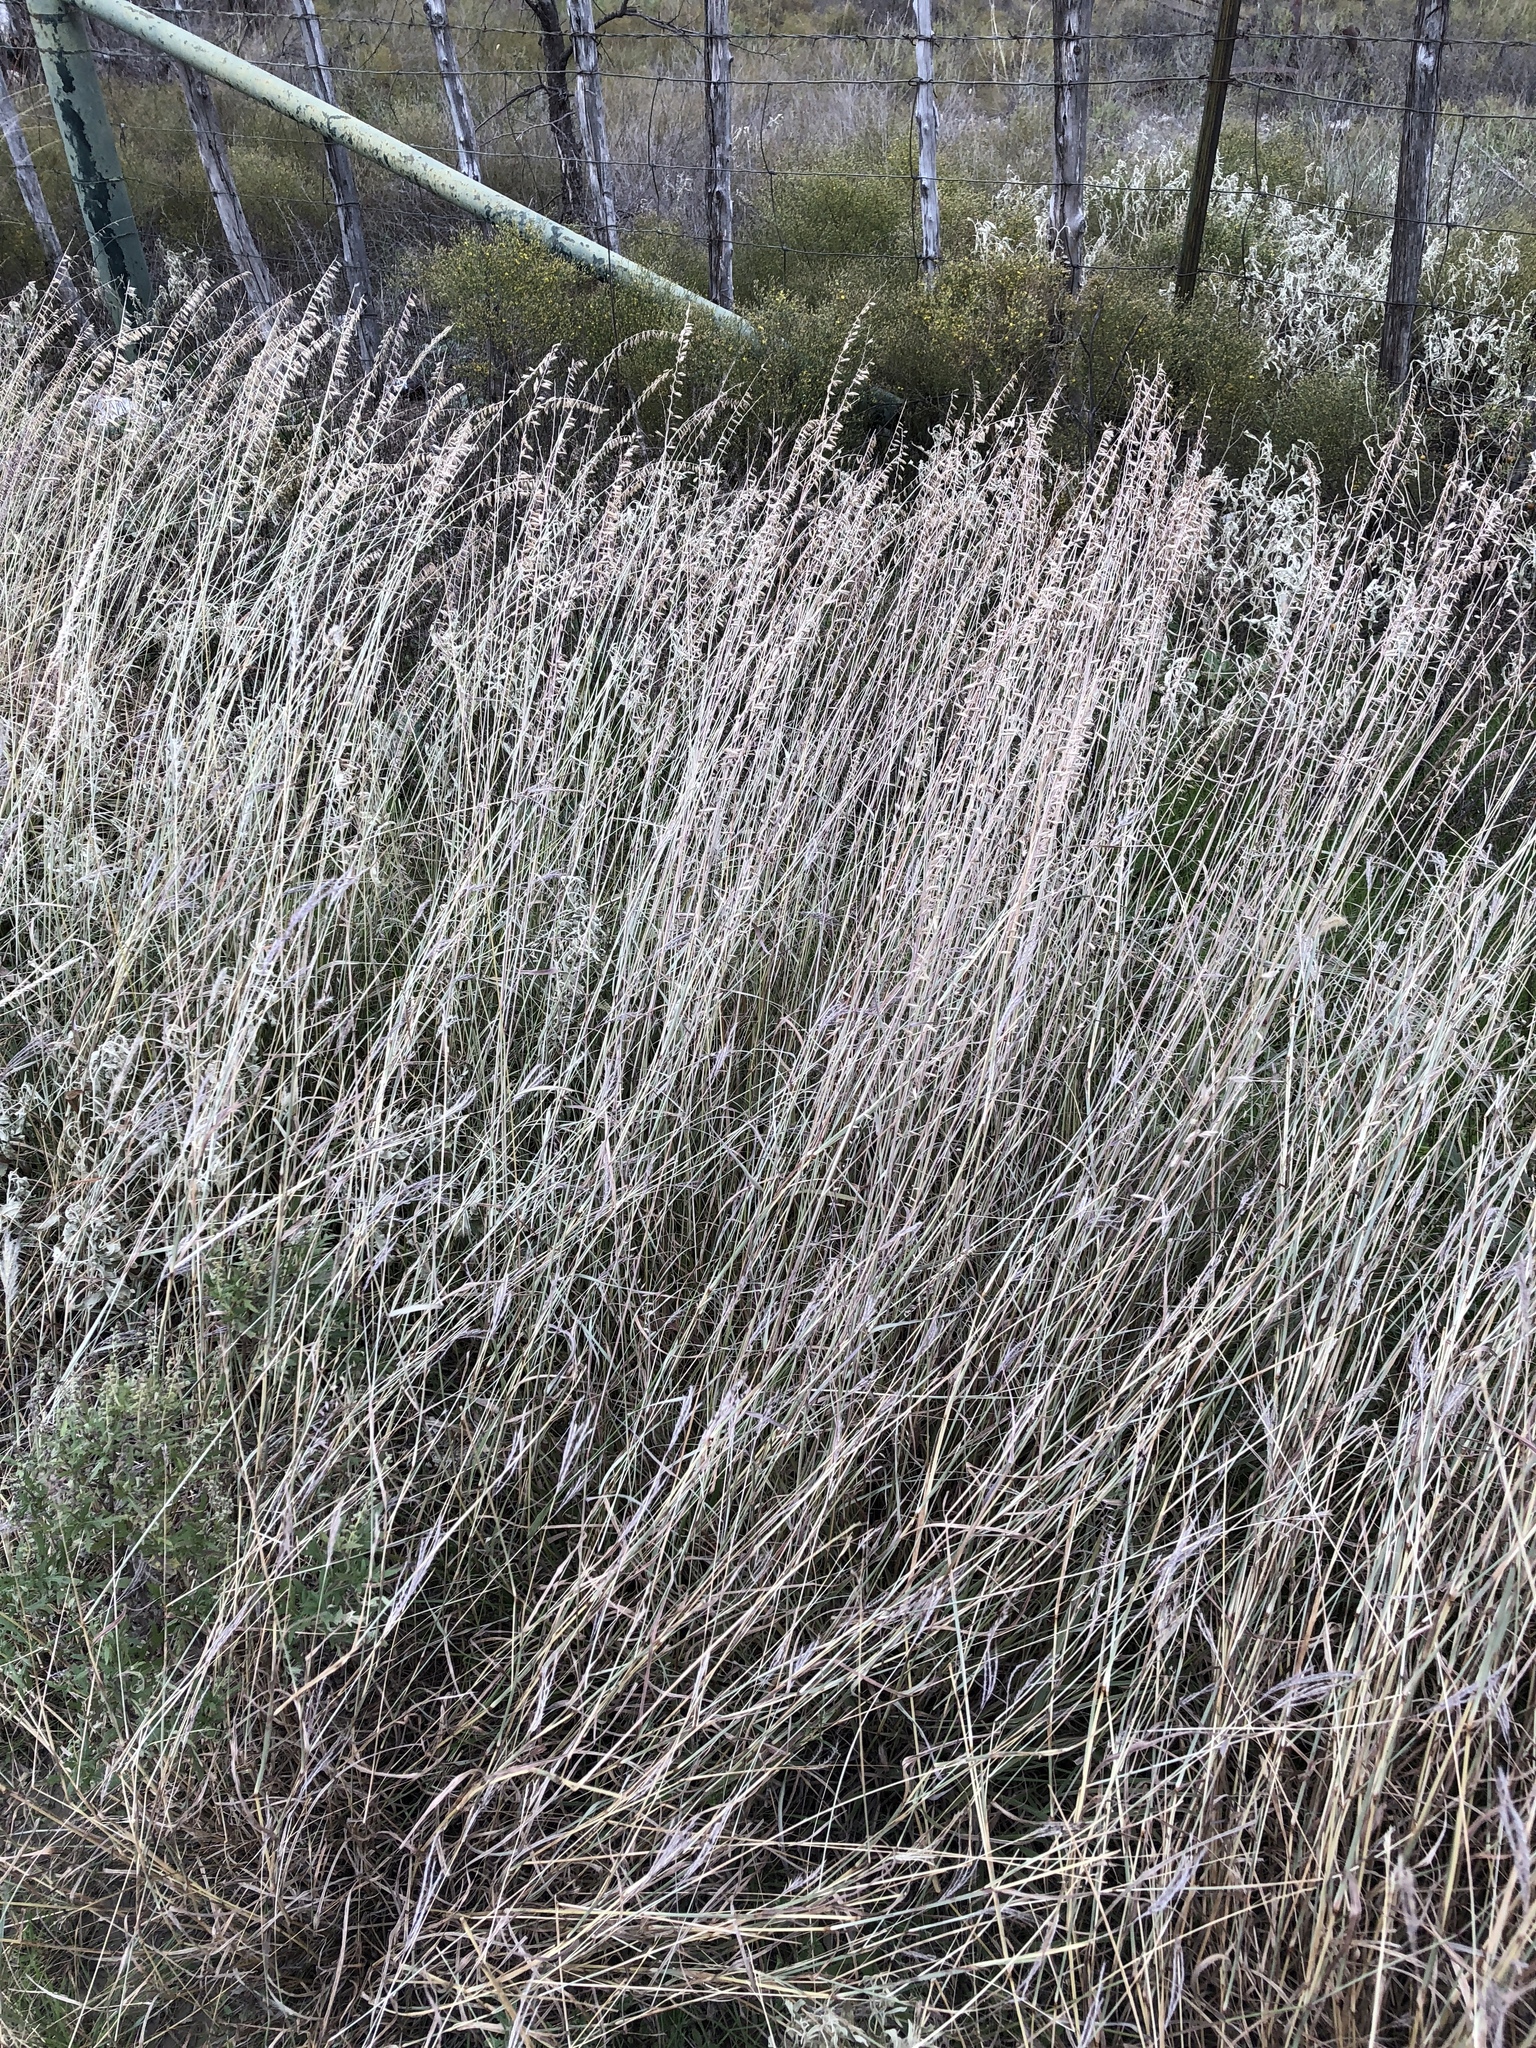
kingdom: Plantae
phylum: Tracheophyta
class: Liliopsida
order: Poales
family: Poaceae
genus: Bouteloua
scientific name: Bouteloua curtipendula
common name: Side-oats grama
